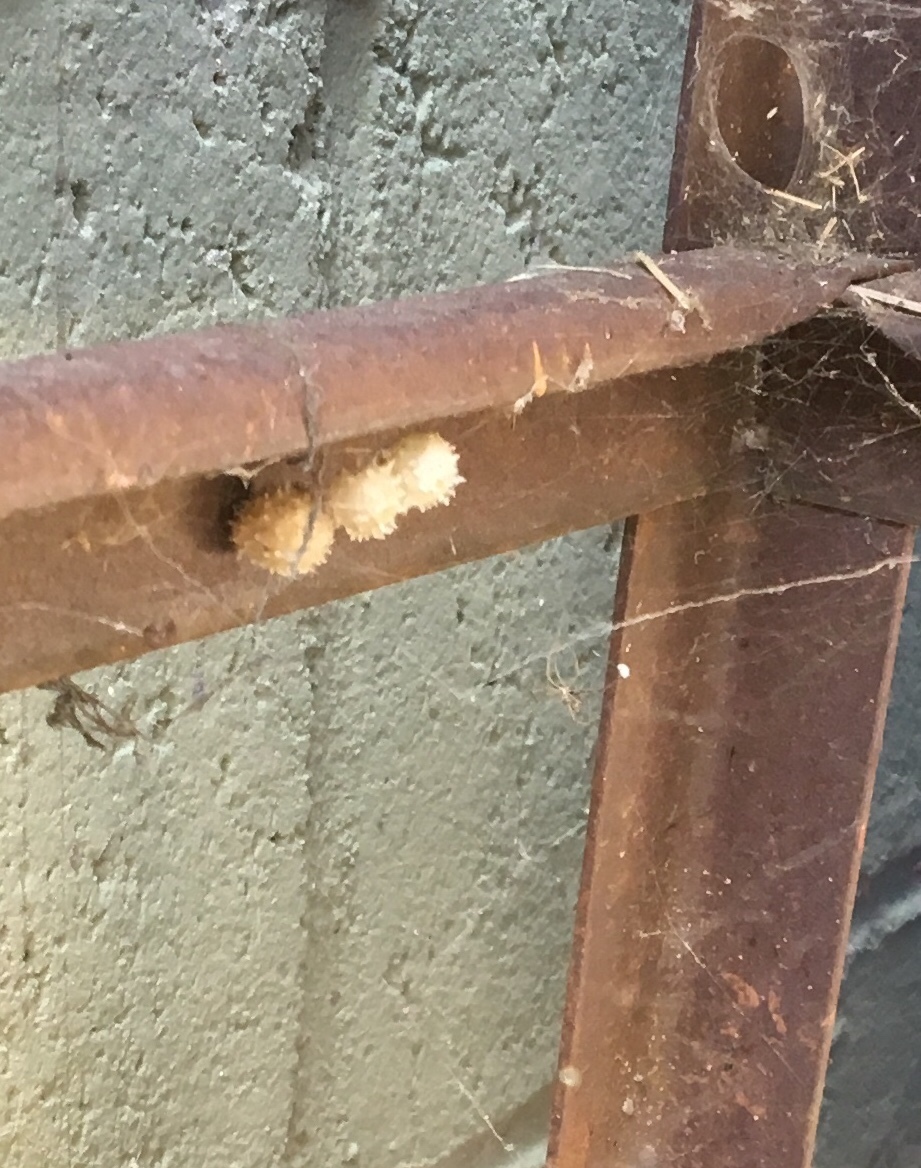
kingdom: Animalia
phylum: Arthropoda
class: Arachnida
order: Araneae
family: Theridiidae
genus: Latrodectus
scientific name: Latrodectus geometricus
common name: Brown widow spider
